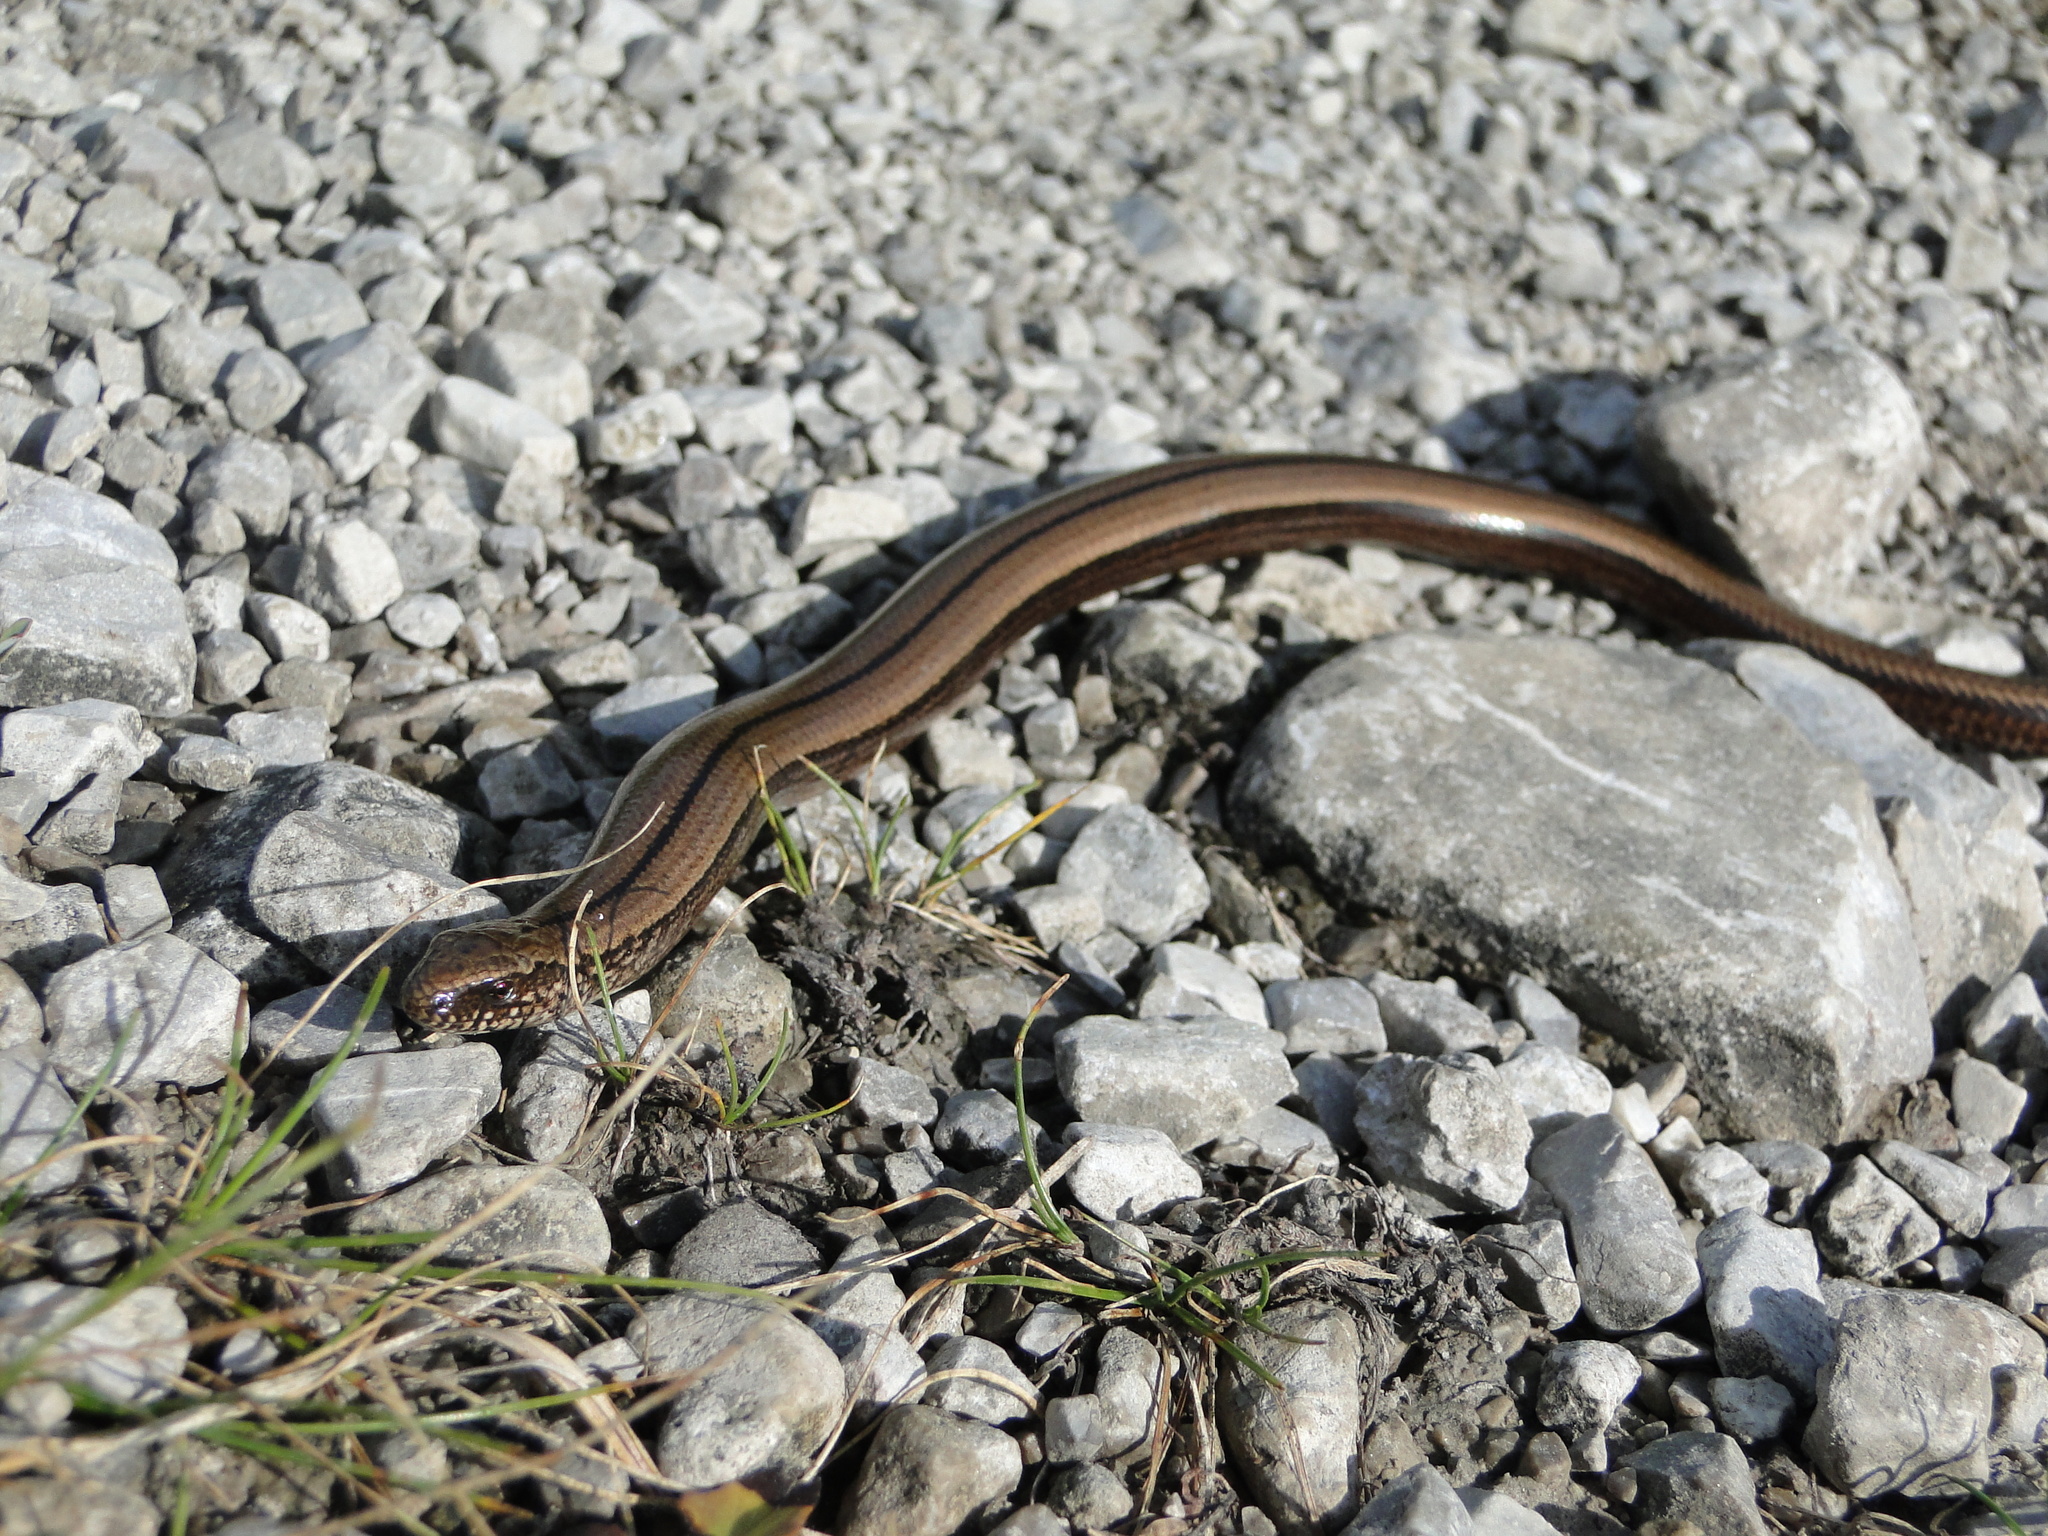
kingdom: Animalia
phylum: Chordata
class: Squamata
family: Anguidae
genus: Anguis
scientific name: Anguis fragilis
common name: Slow worm
